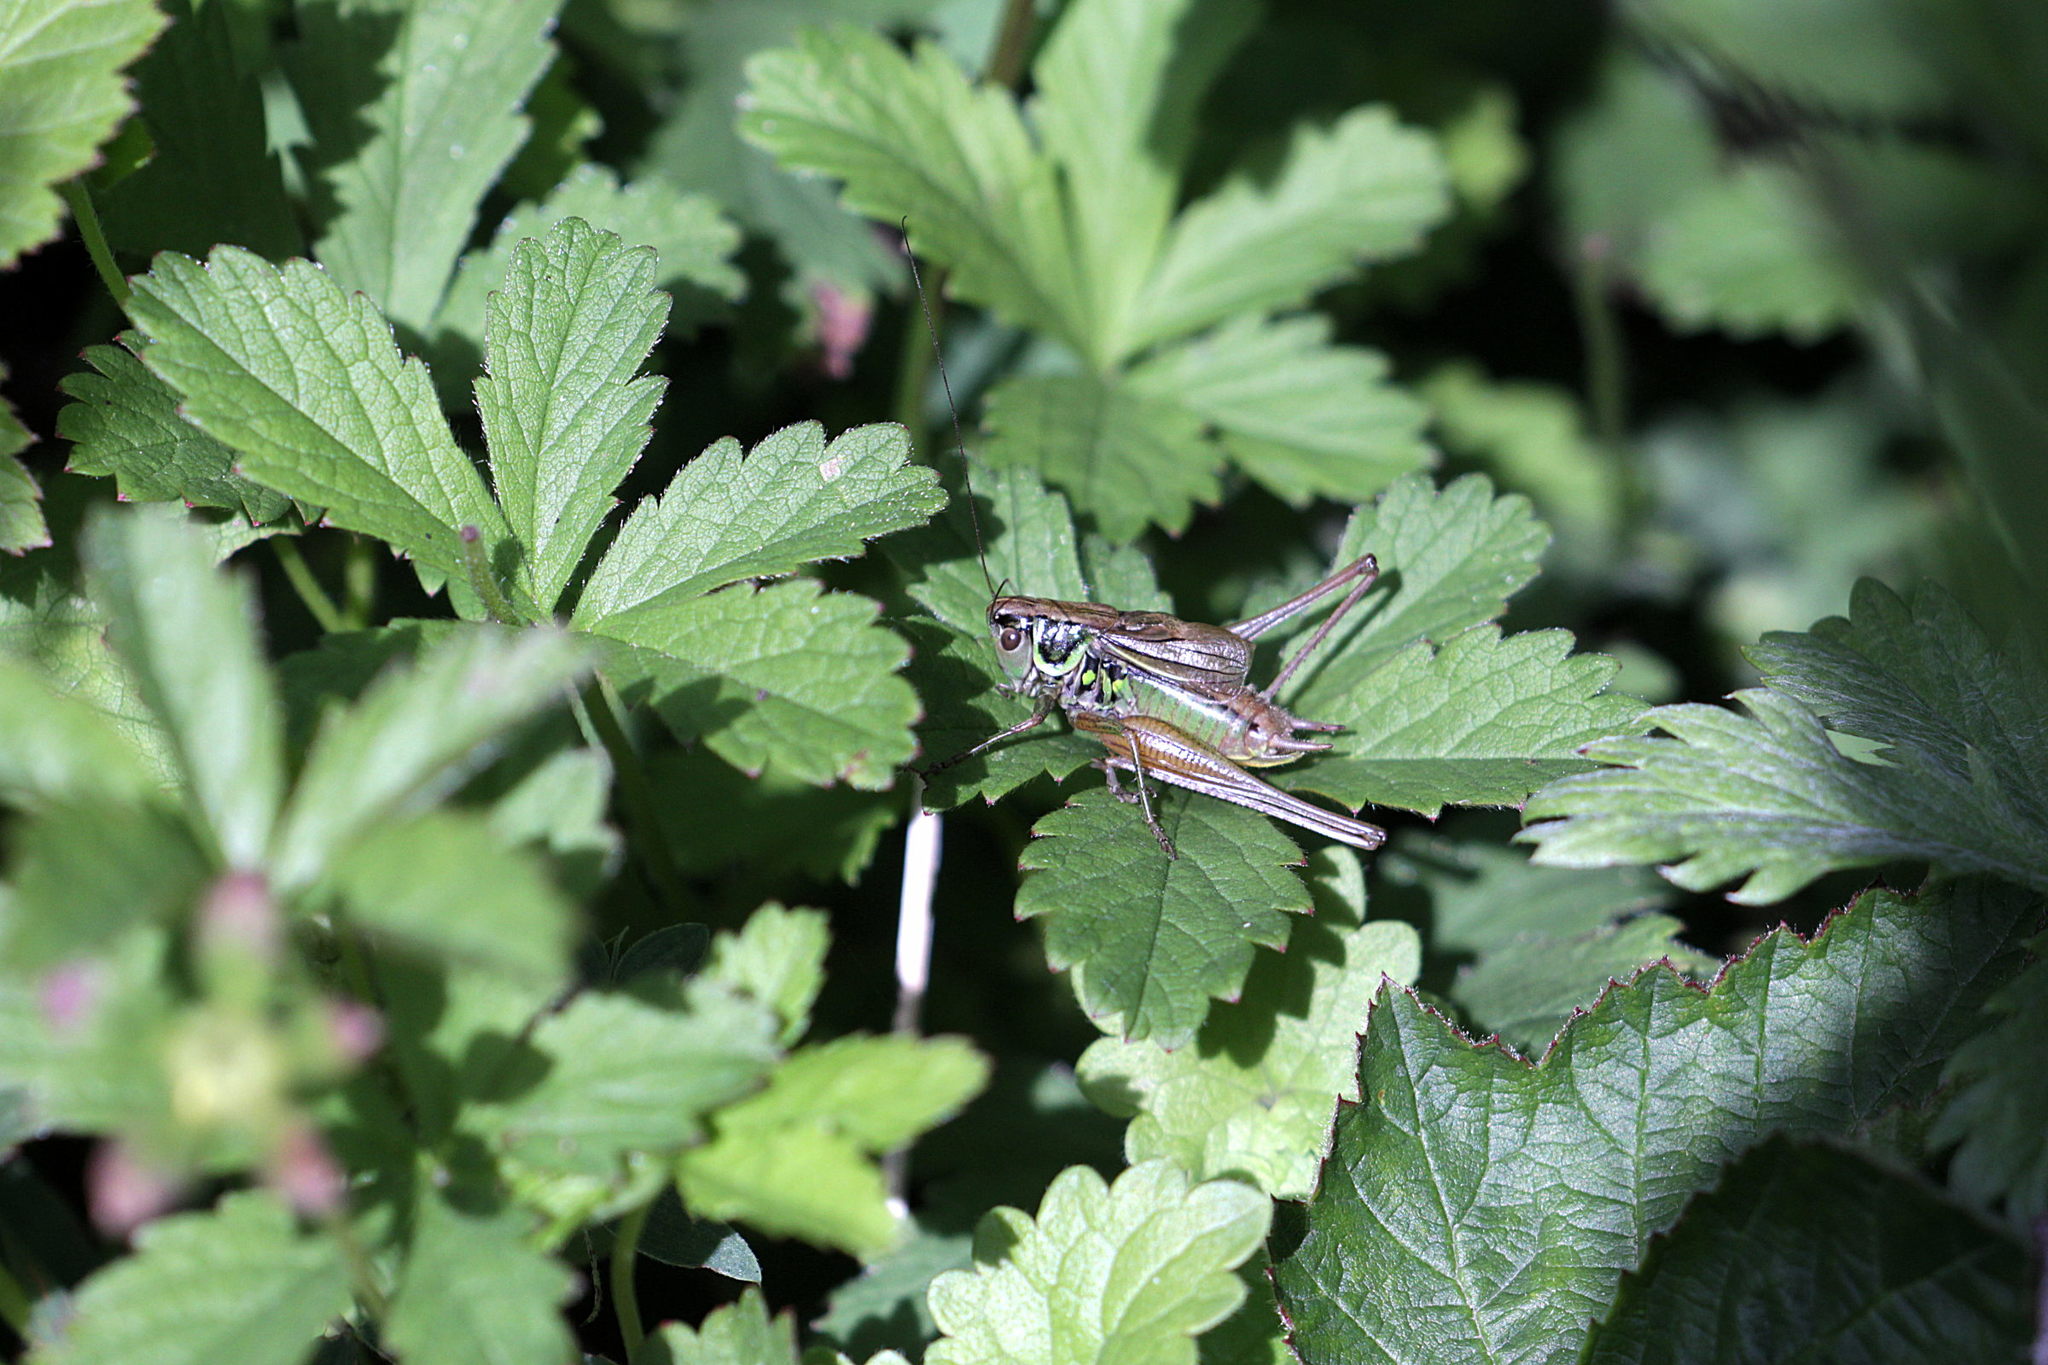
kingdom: Animalia
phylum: Arthropoda
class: Insecta
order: Orthoptera
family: Tettigoniidae
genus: Roeseliana
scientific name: Roeseliana roeselii
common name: Roesel's bush cricket
